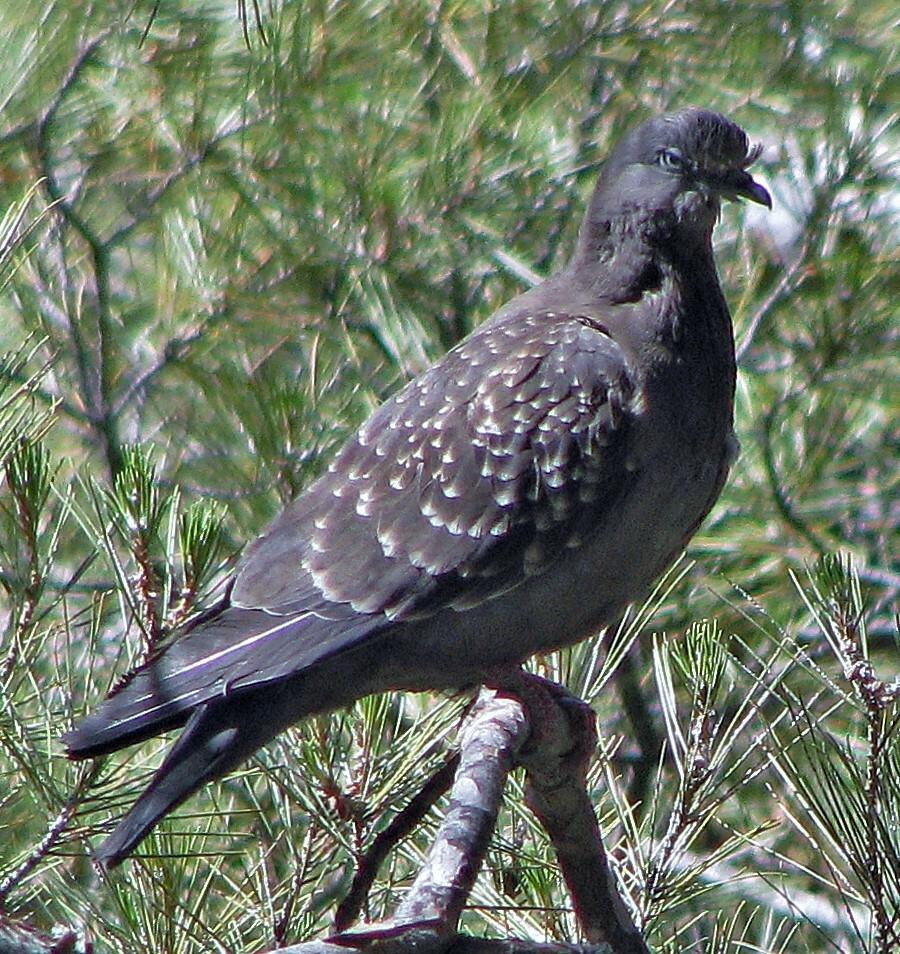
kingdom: Animalia
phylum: Chordata
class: Aves
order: Columbiformes
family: Columbidae
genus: Patagioenas
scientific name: Patagioenas maculosa
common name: Spot-winged pigeon
